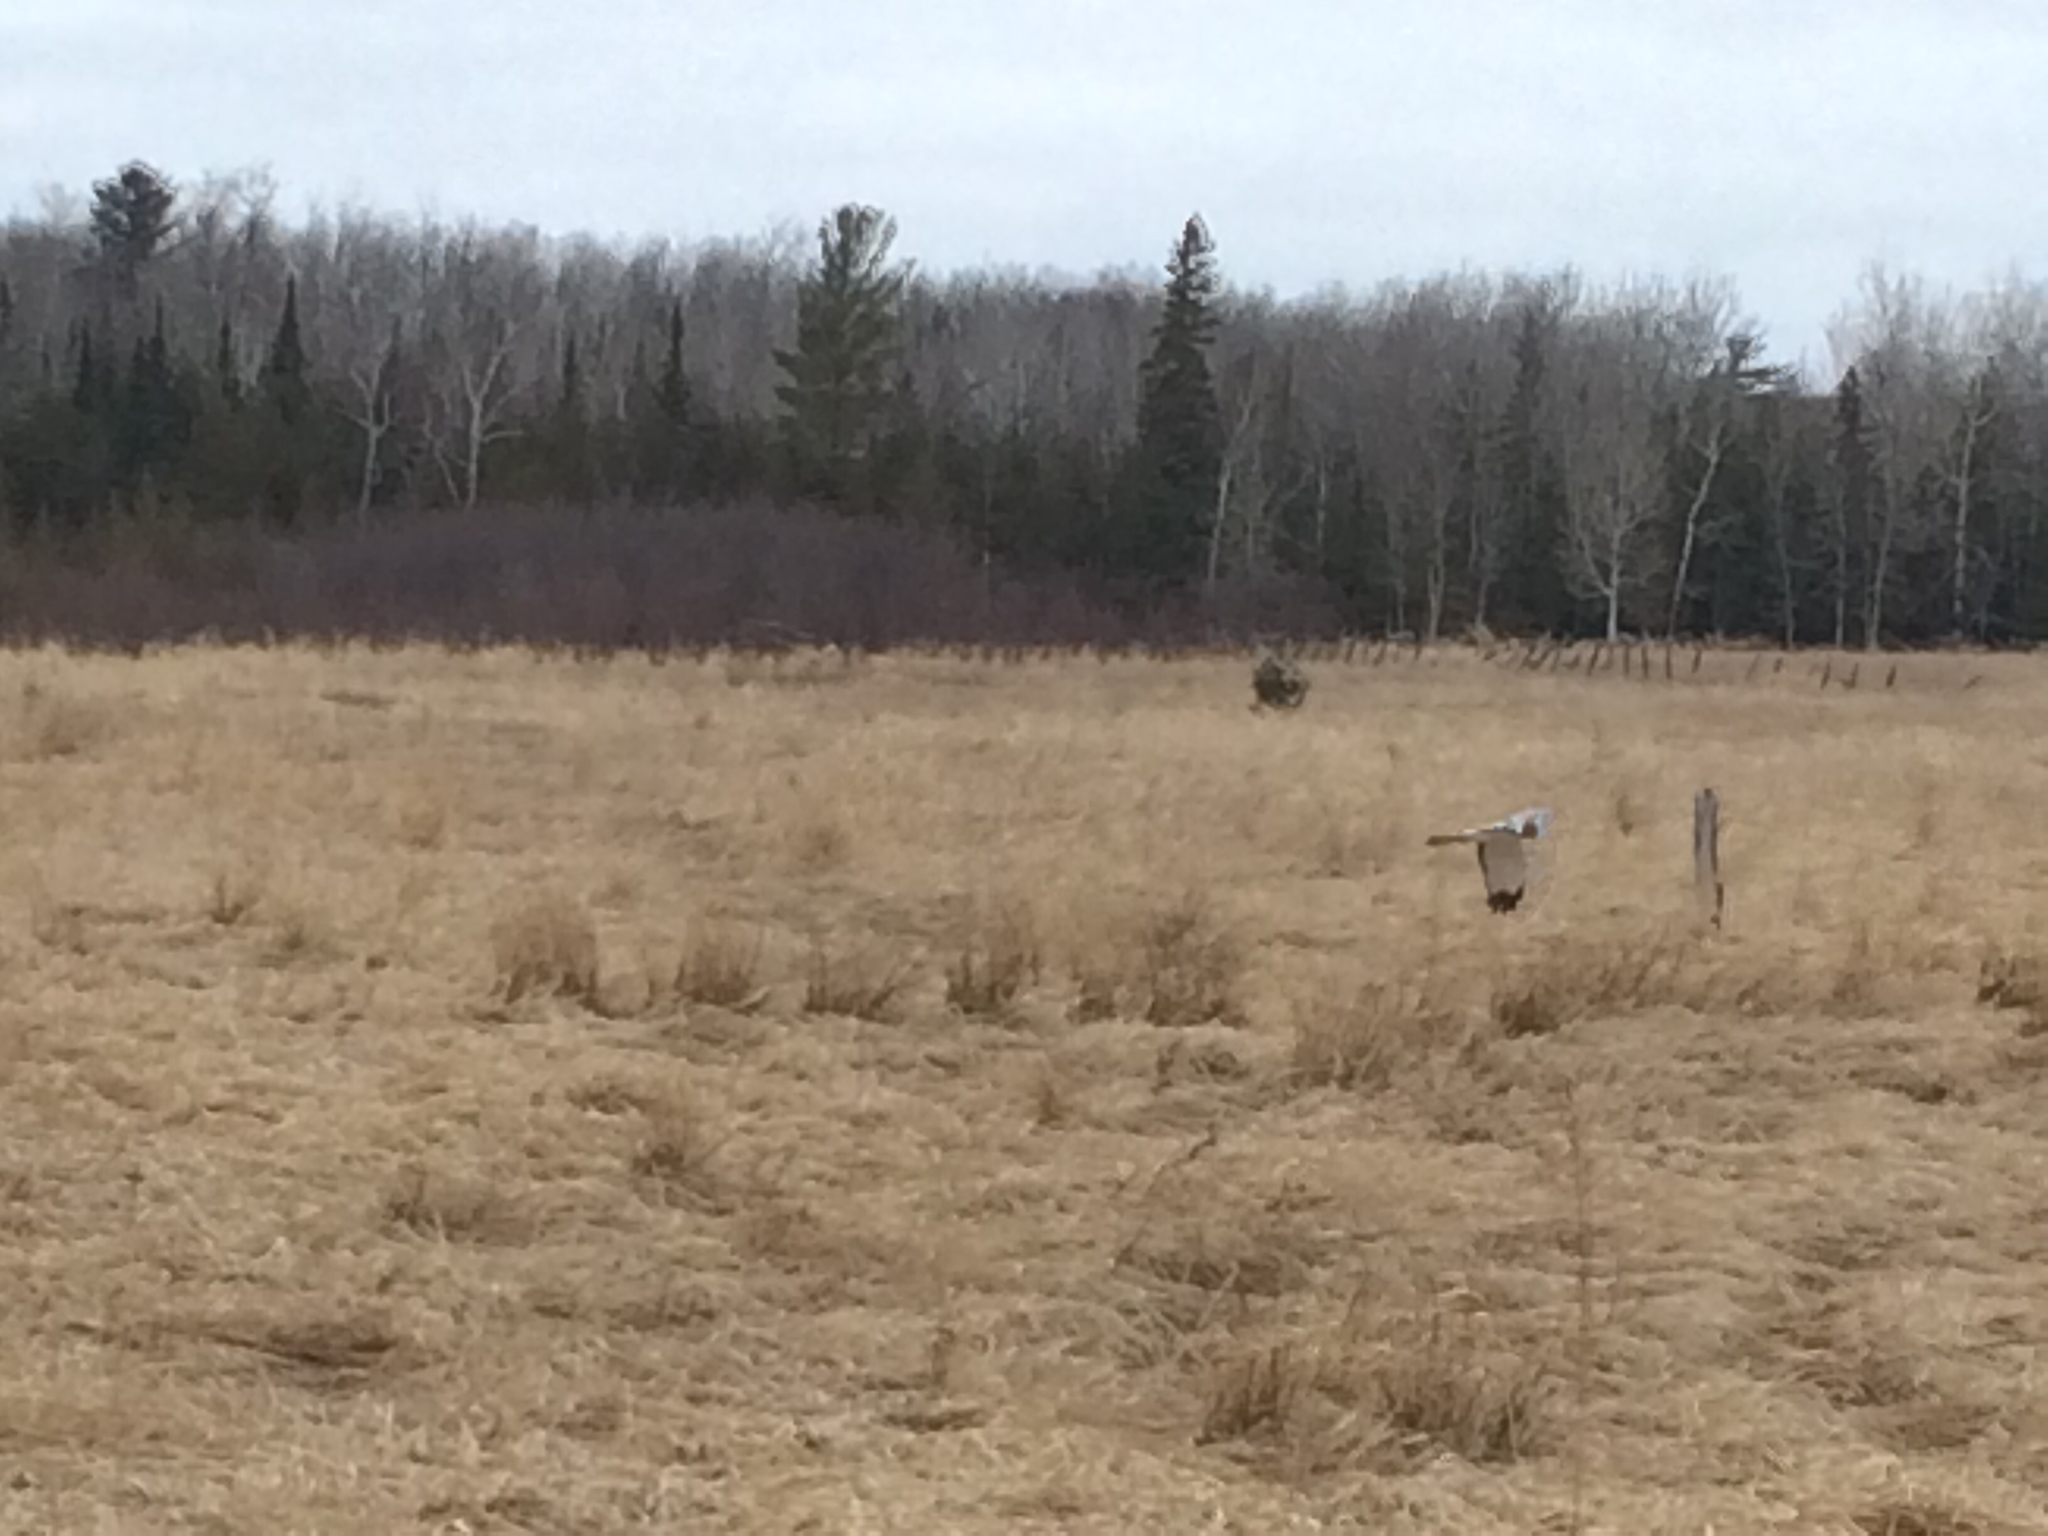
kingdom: Animalia
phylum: Chordata
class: Aves
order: Accipitriformes
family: Accipitridae
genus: Circus
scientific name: Circus cyaneus
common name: Hen harrier
